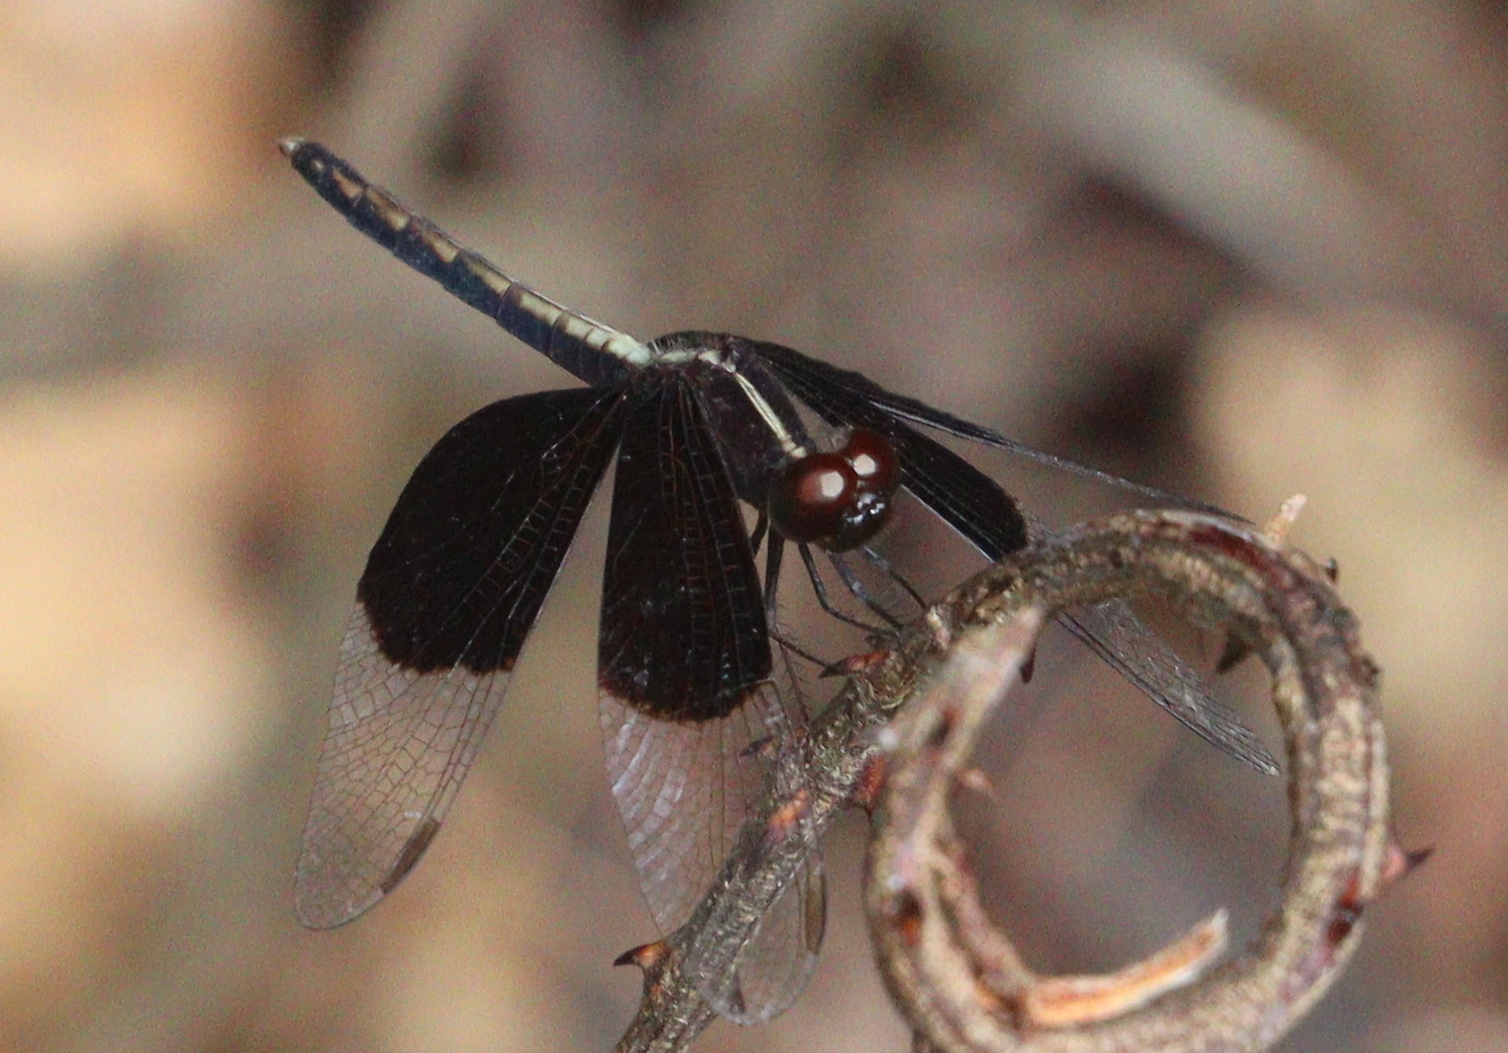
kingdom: Animalia
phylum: Arthropoda
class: Insecta
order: Odonata
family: Libellulidae
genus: Neurothemis
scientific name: Neurothemis tullia
